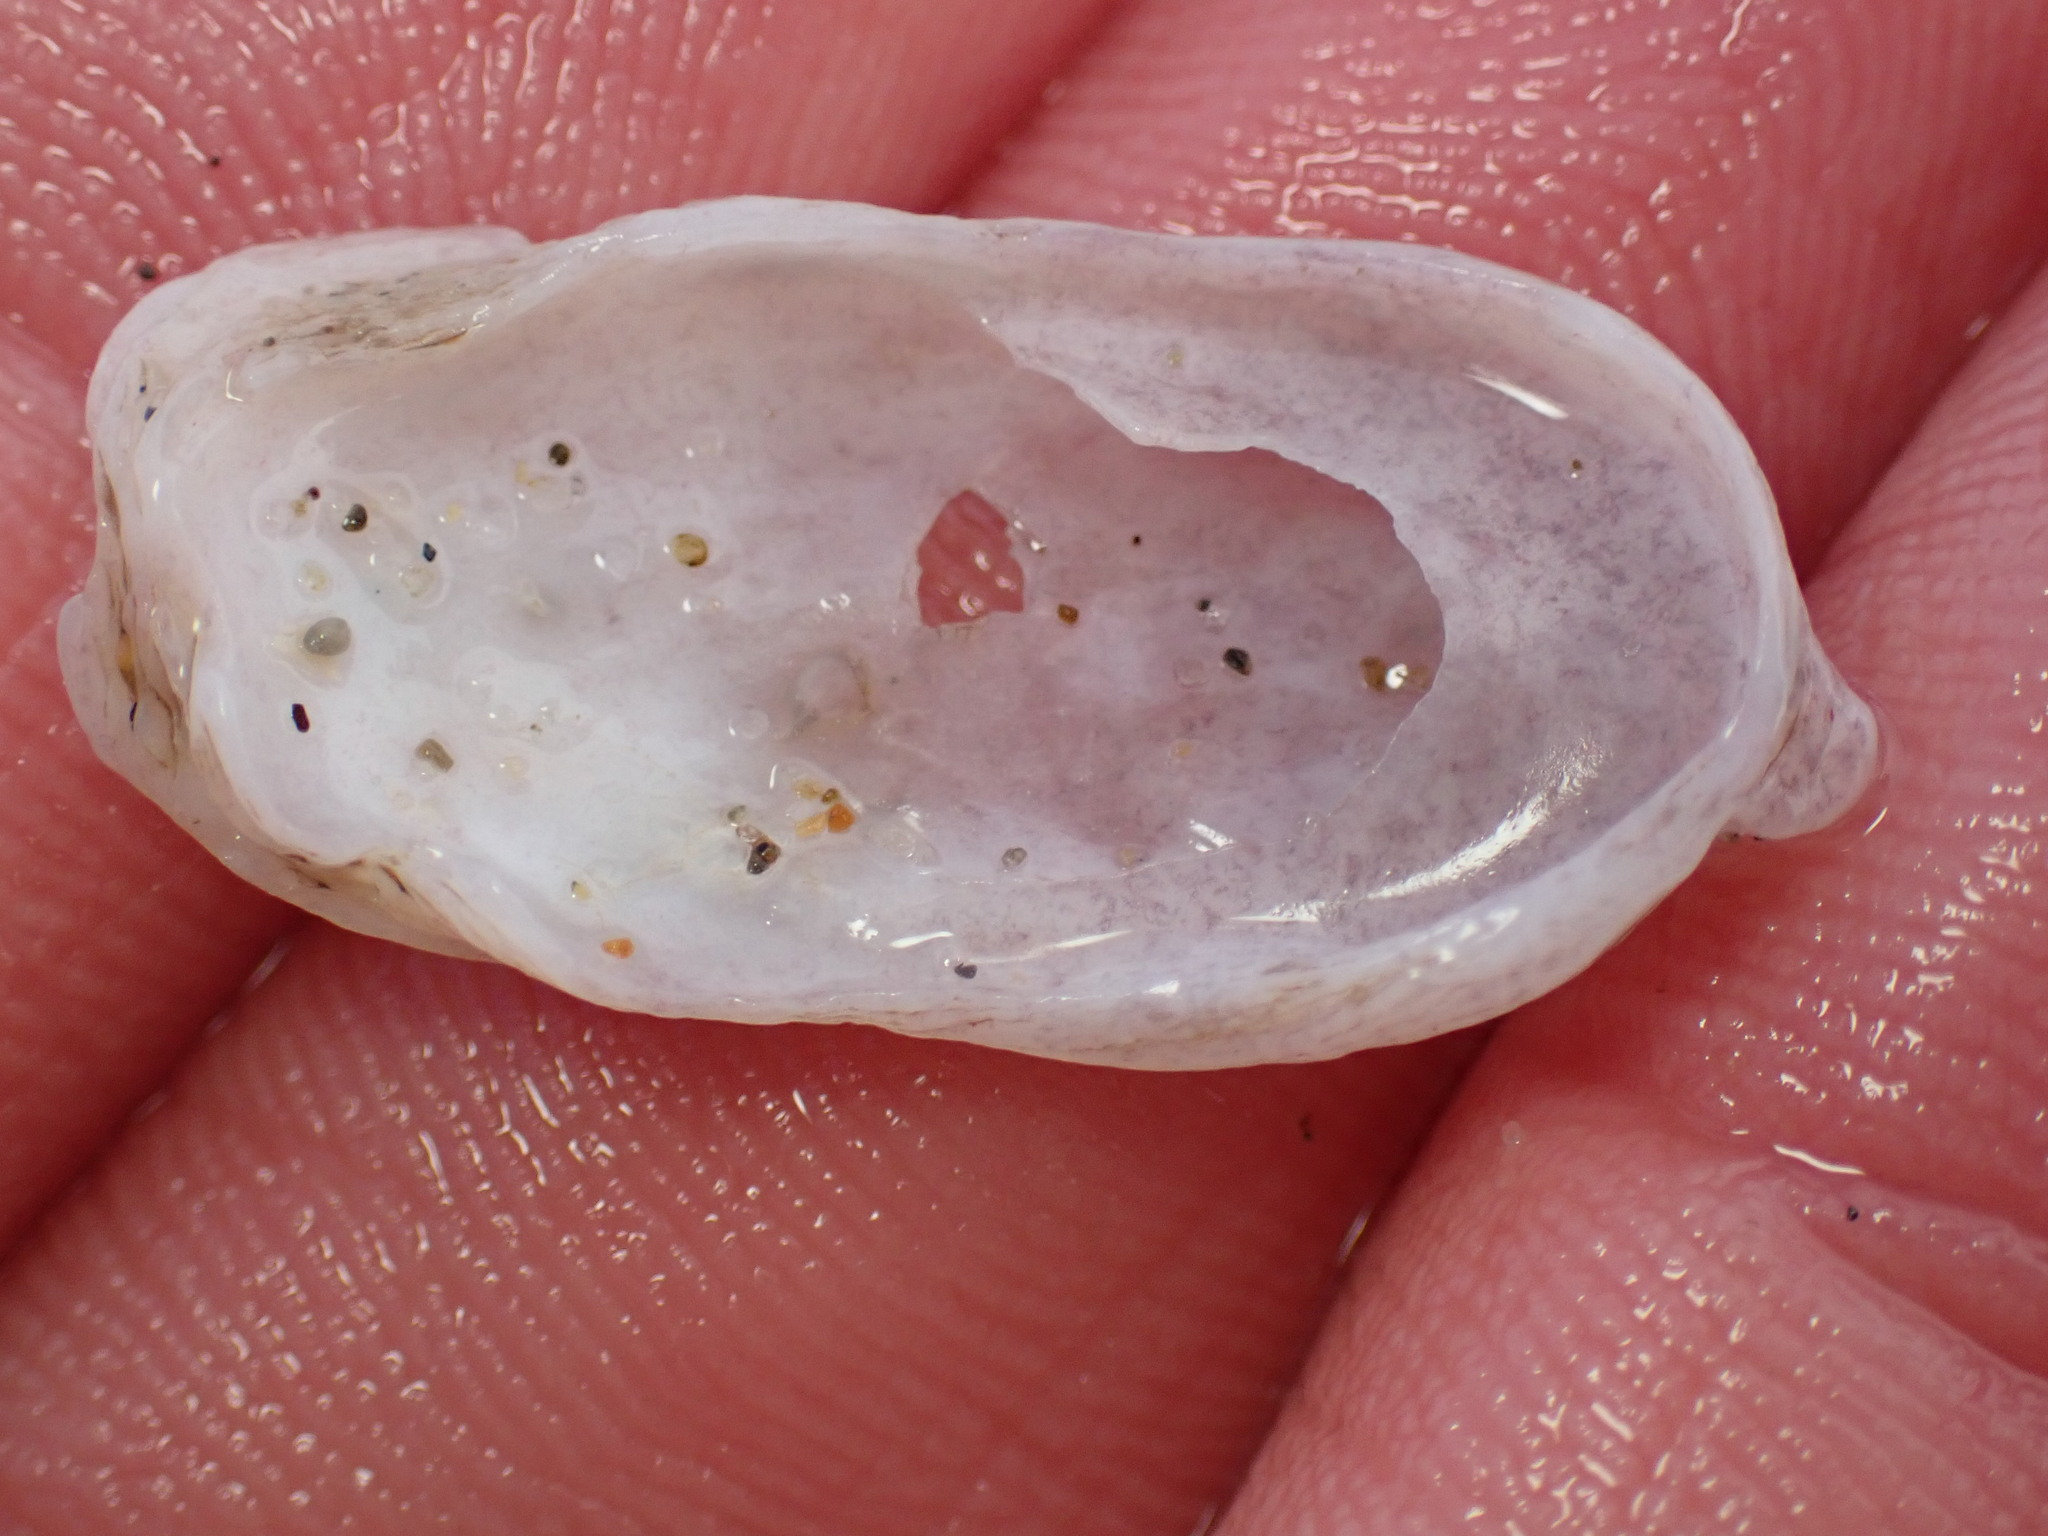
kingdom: Animalia
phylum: Mollusca
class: Gastropoda
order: Littorinimorpha
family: Calyptraeidae
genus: Crepidula
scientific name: Crepidula perforans
